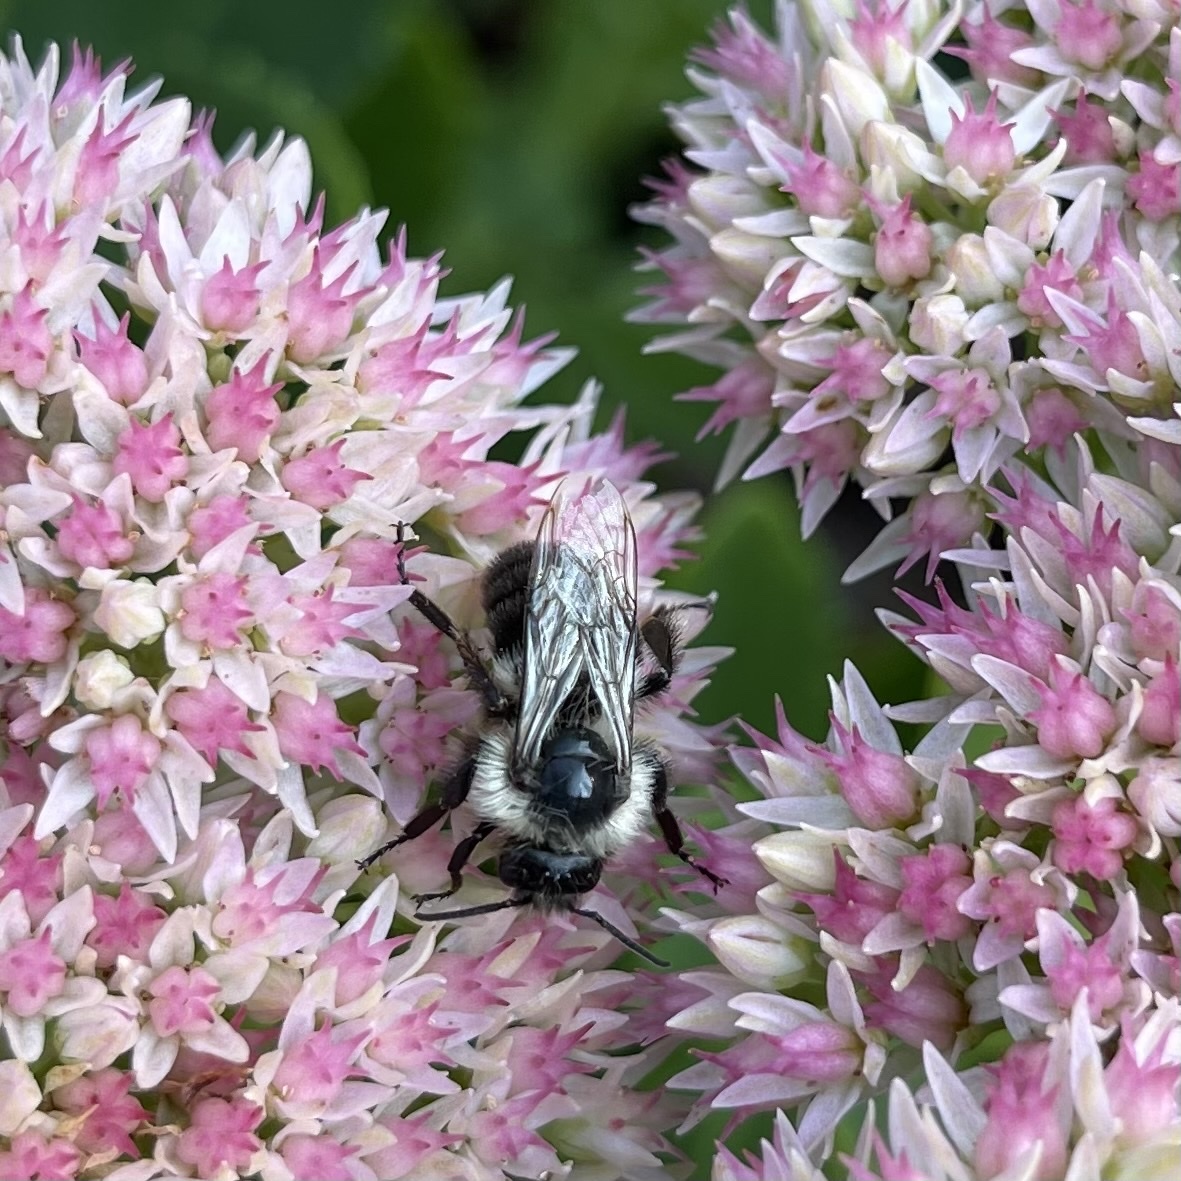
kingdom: Animalia
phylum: Arthropoda
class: Insecta
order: Hymenoptera
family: Apidae
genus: Bombus
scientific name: Bombus impatiens
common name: Common eastern bumble bee
